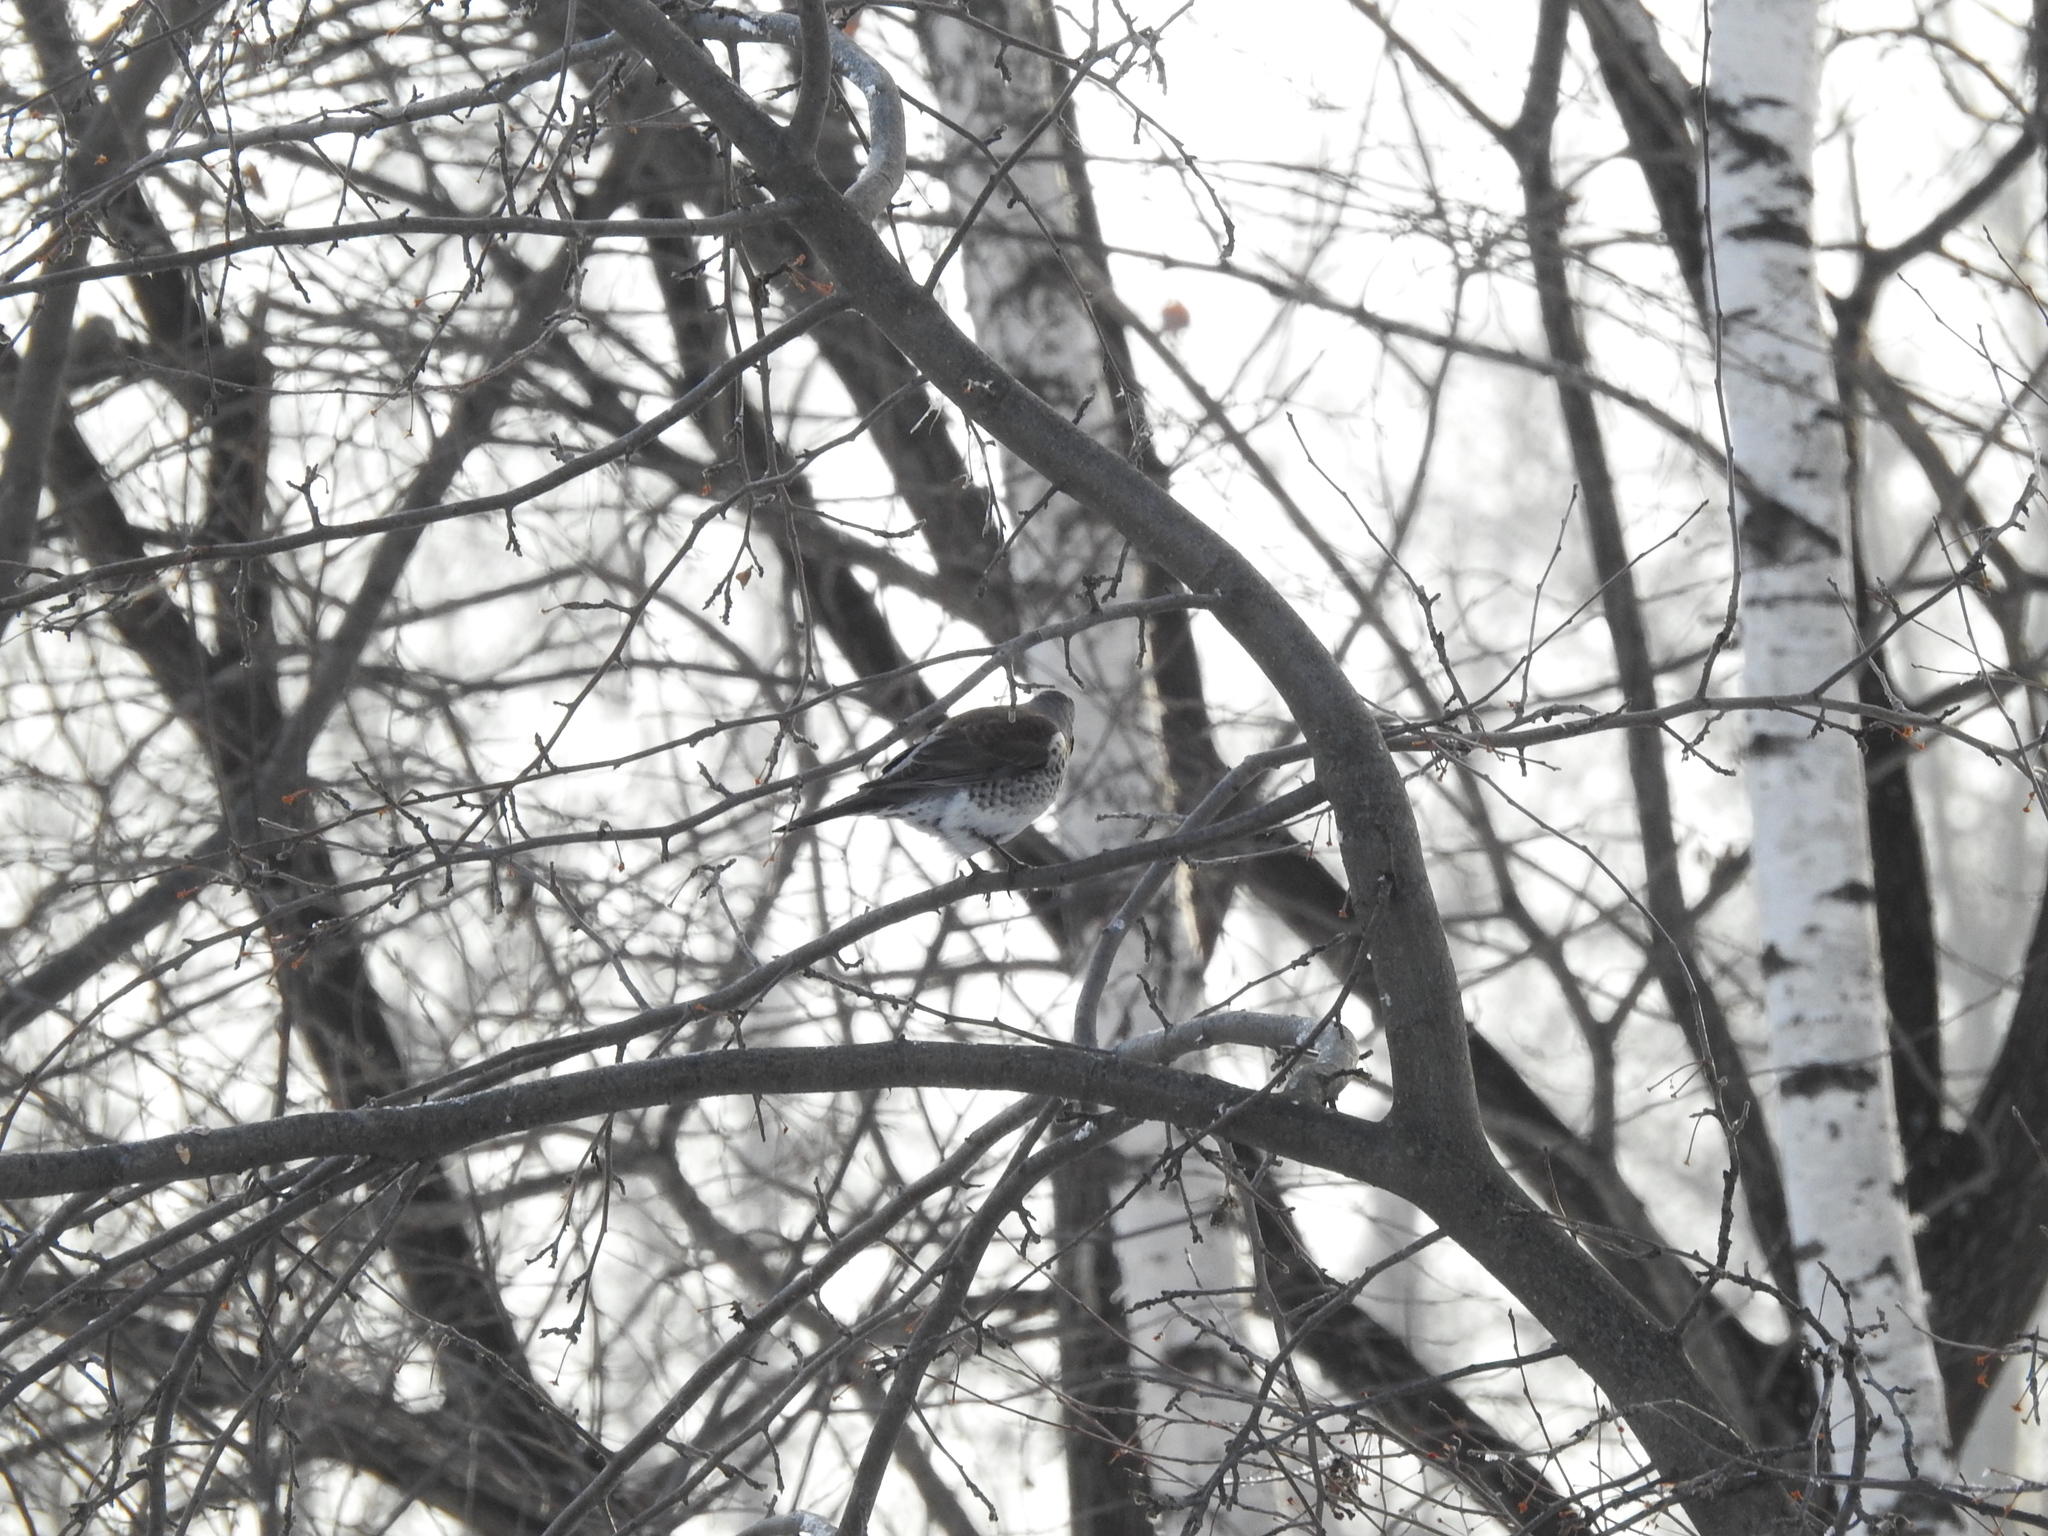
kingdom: Animalia
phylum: Chordata
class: Aves
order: Passeriformes
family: Turdidae
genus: Turdus
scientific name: Turdus pilaris
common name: Fieldfare
